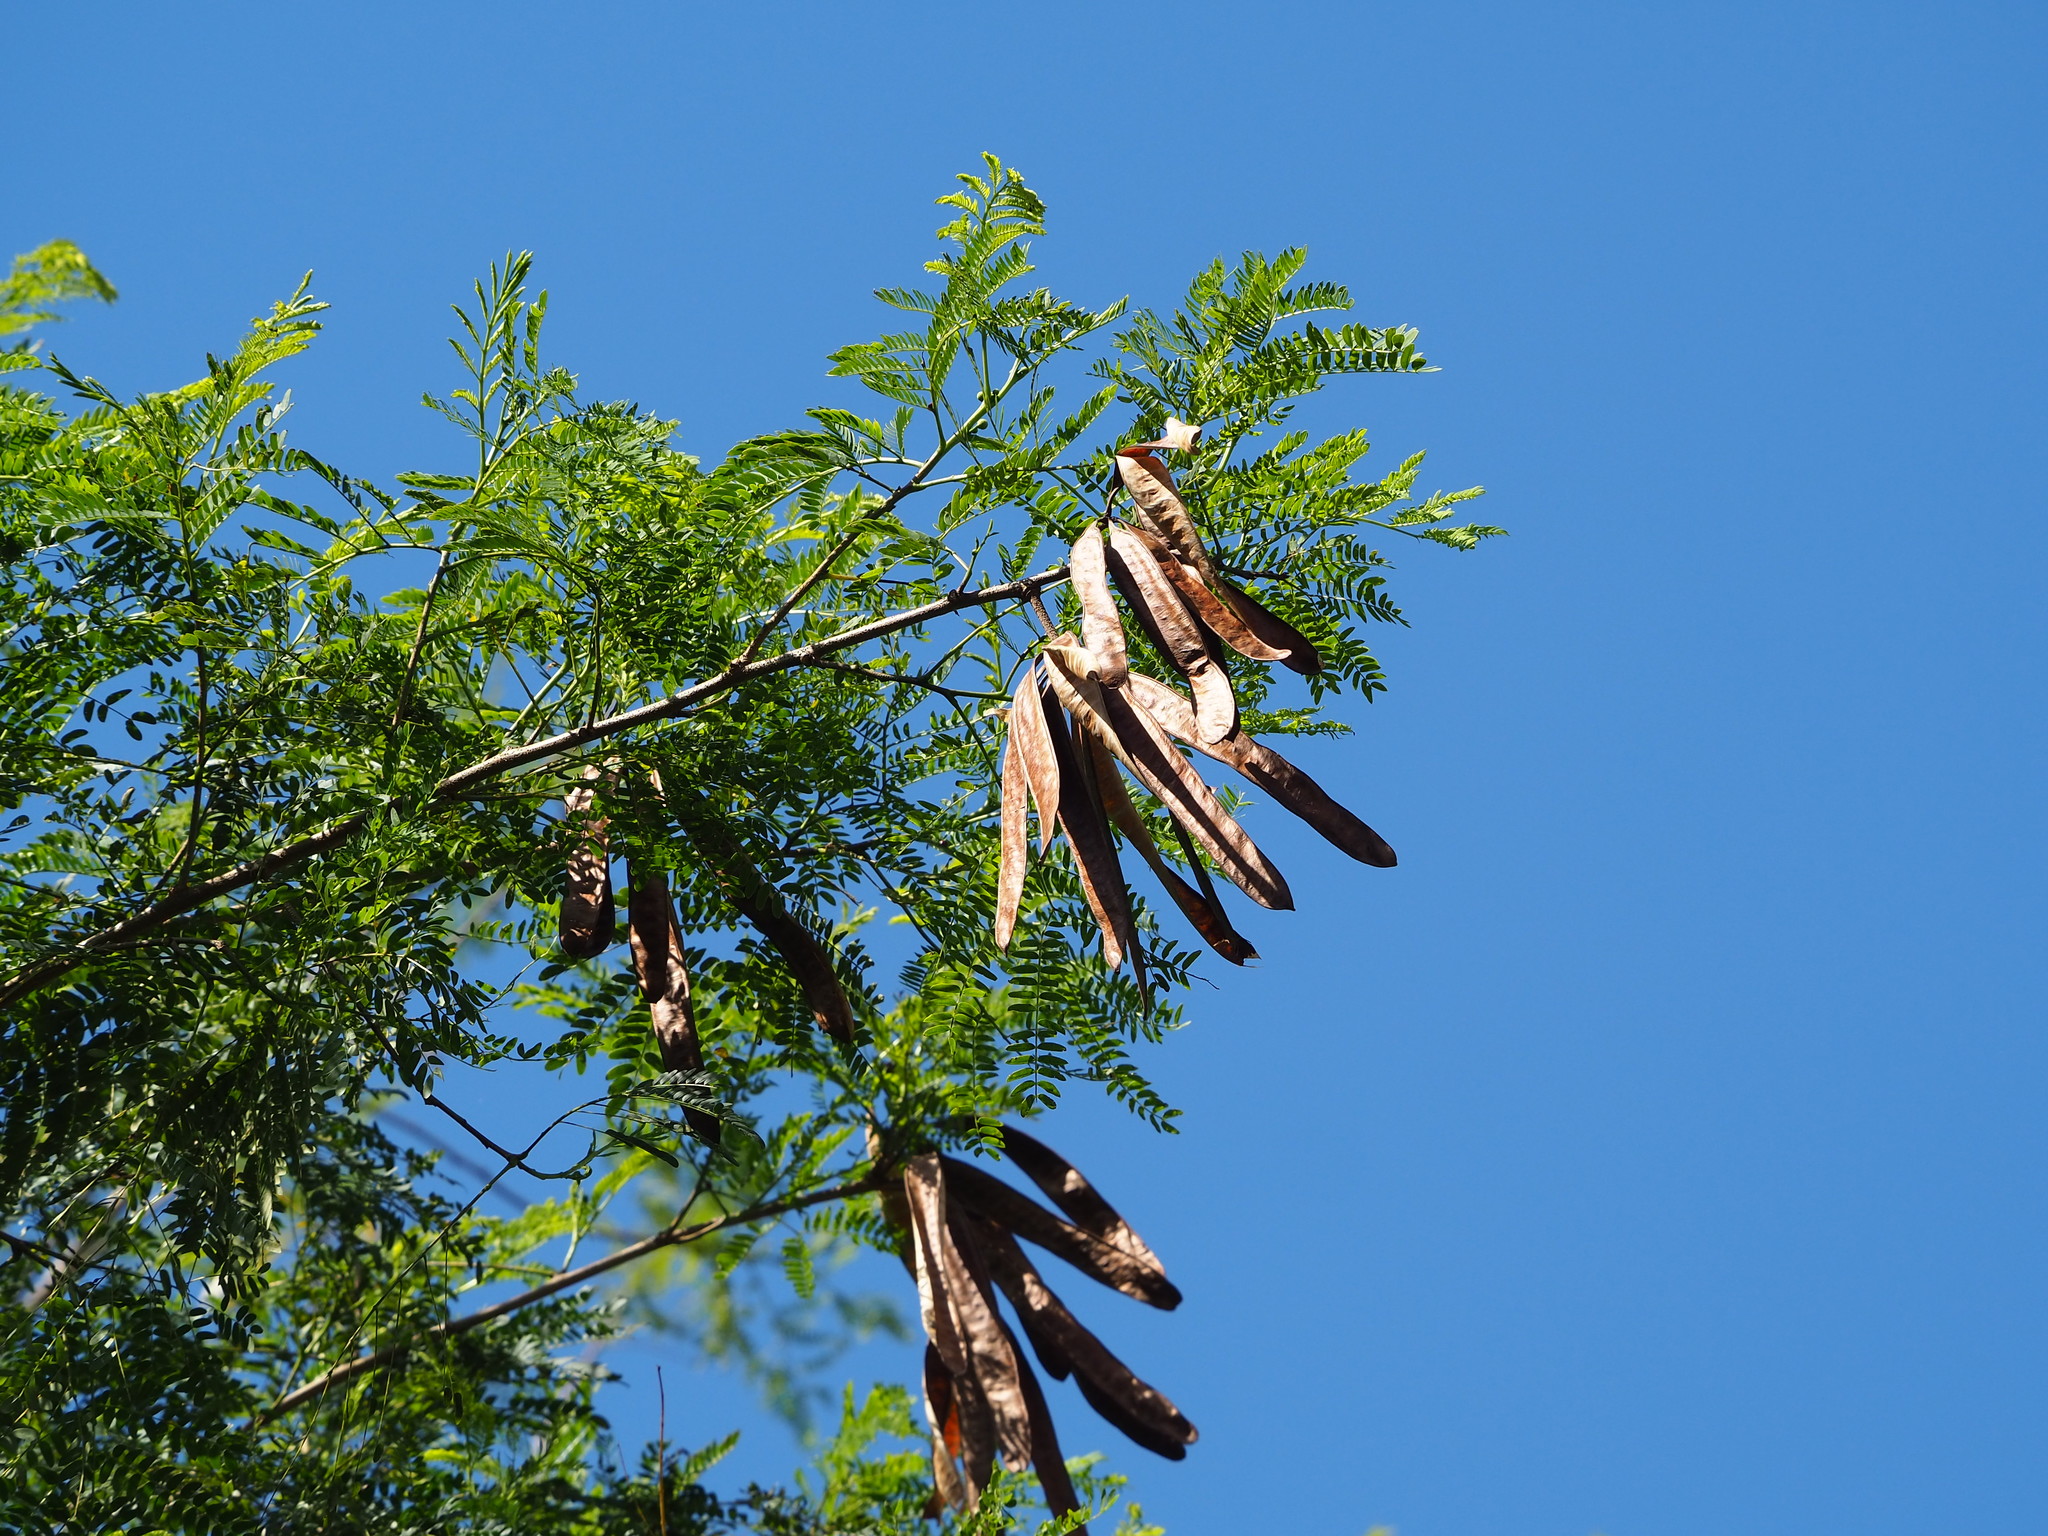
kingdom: Plantae
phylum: Tracheophyta
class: Magnoliopsida
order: Fabales
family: Fabaceae
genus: Leucaena
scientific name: Leucaena leucocephala
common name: White leadtree
